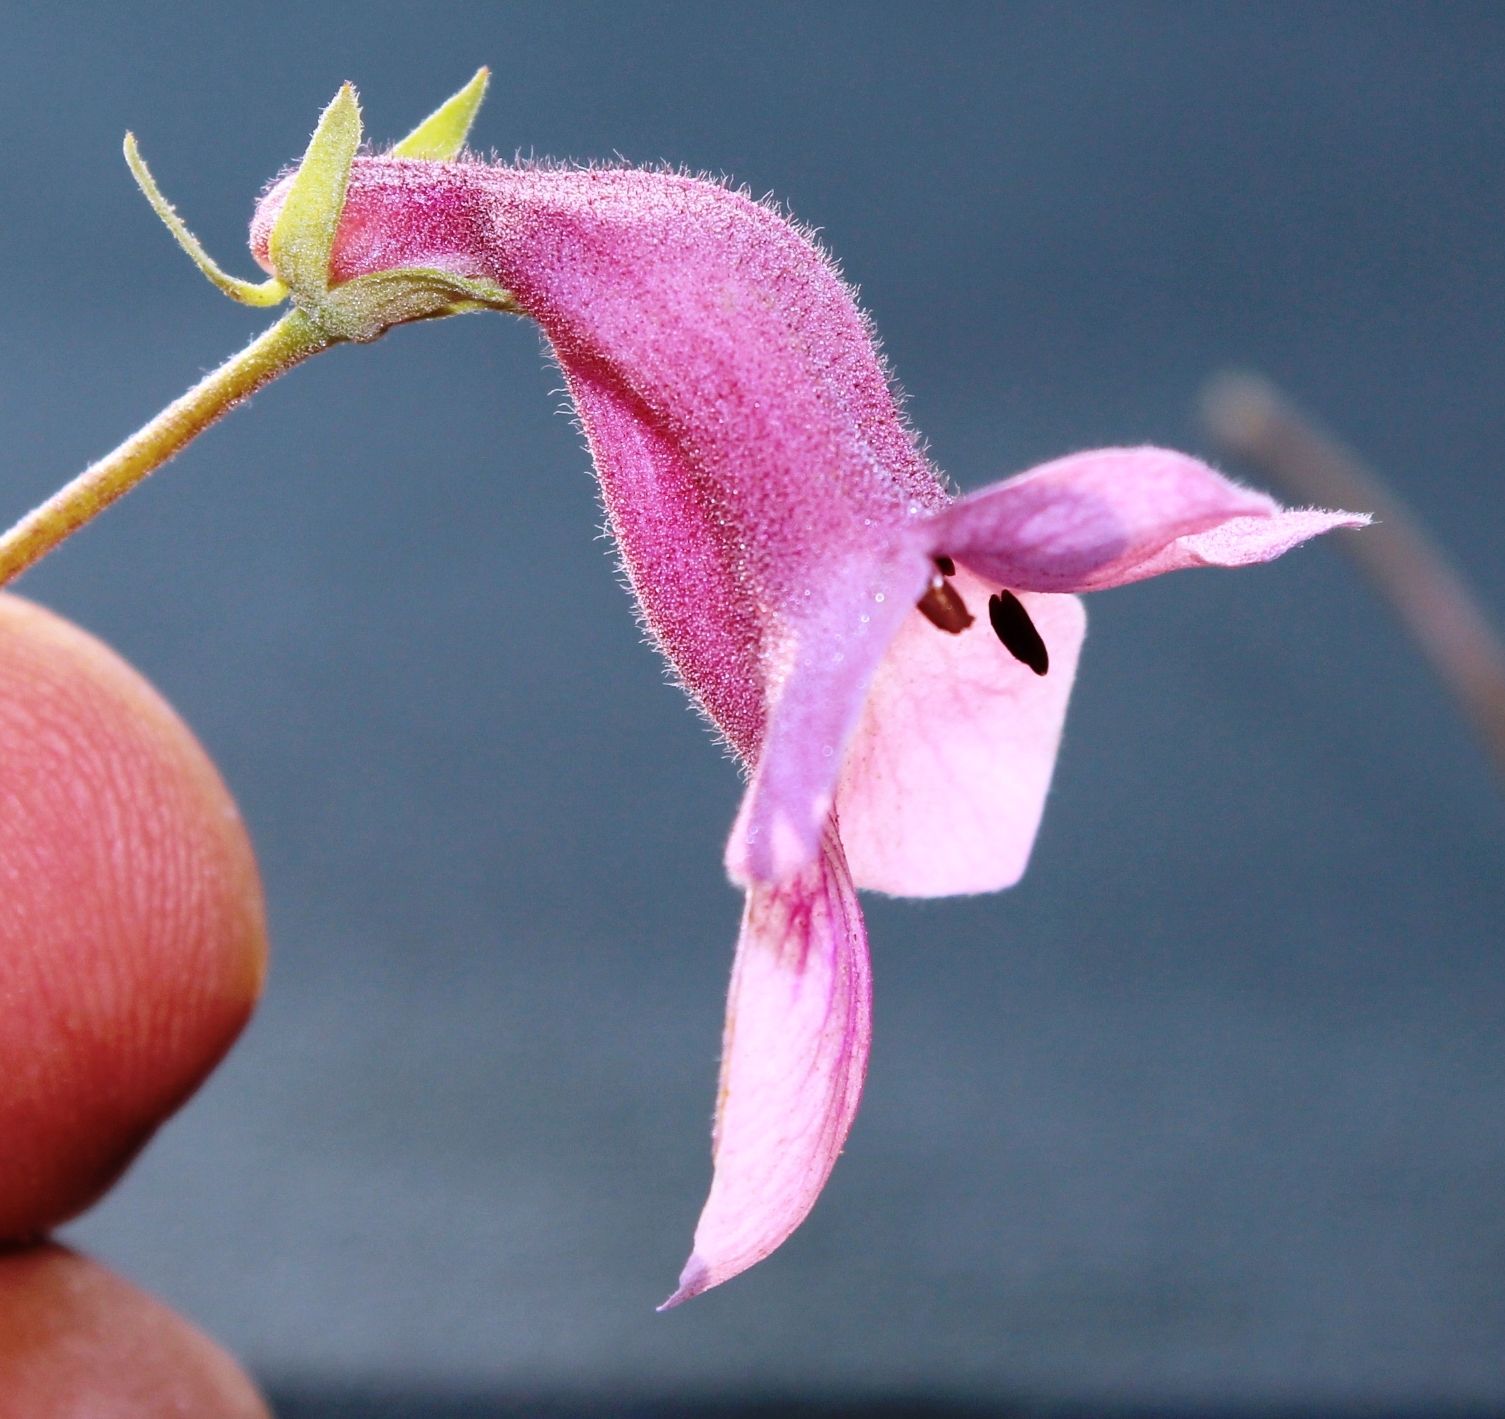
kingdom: Plantae
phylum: Tracheophyta
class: Magnoliopsida
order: Lamiales
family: Pedaliaceae
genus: Dicerocaryum
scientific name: Dicerocaryum senecioides
